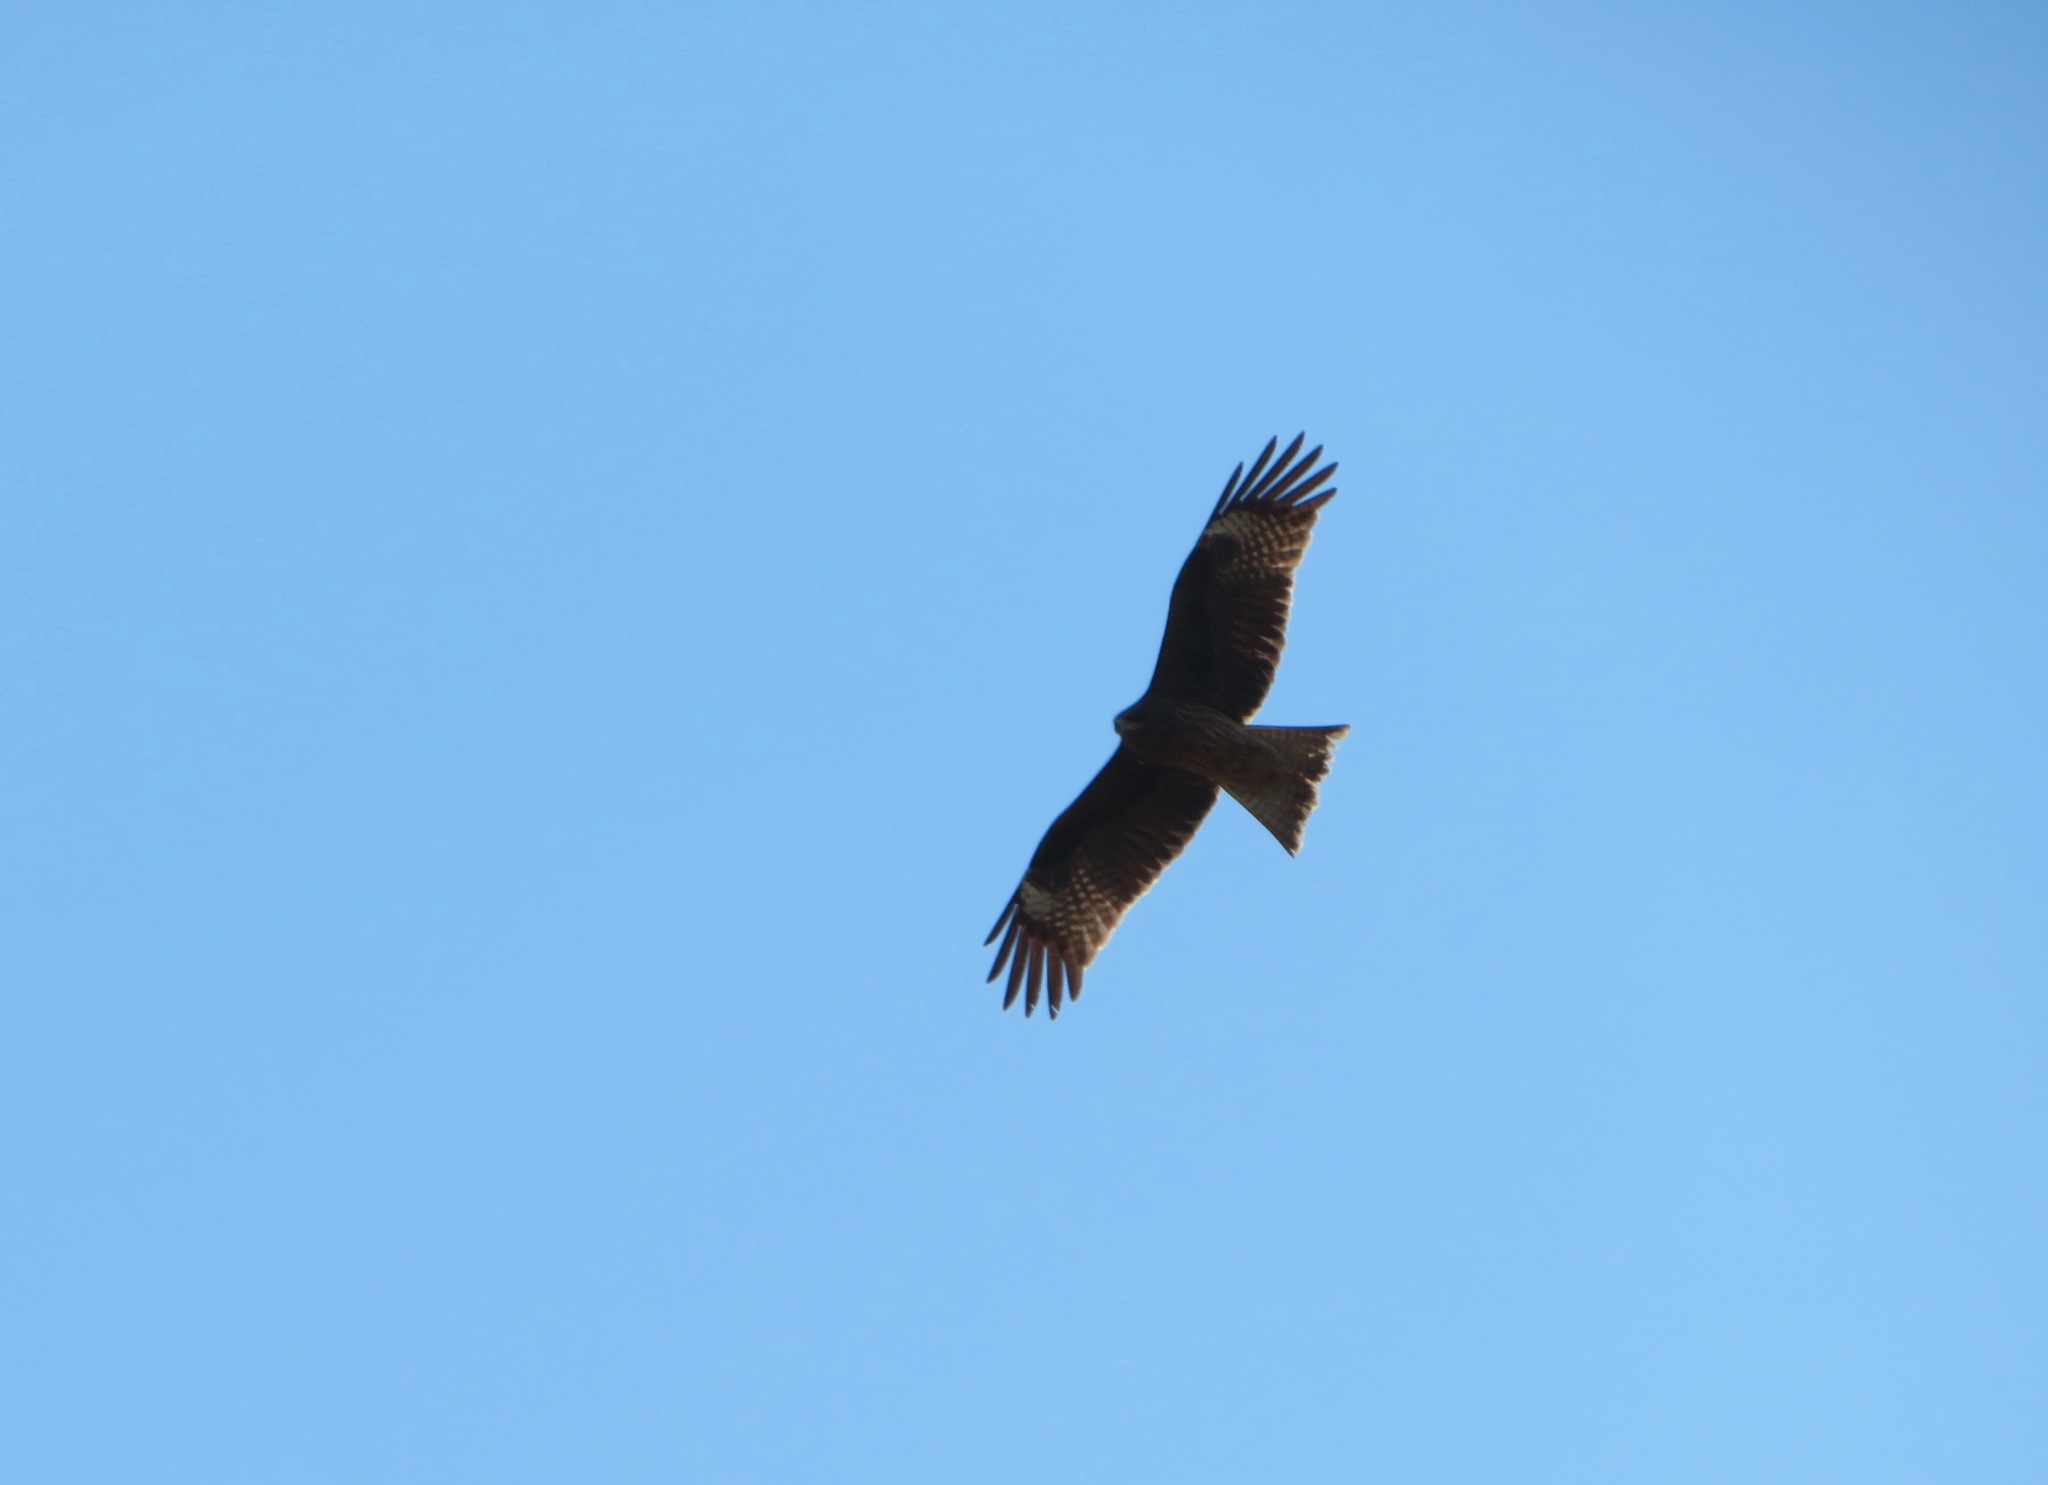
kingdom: Animalia
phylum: Chordata
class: Aves
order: Accipitriformes
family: Accipitridae
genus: Milvus
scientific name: Milvus migrans
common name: Black kite
